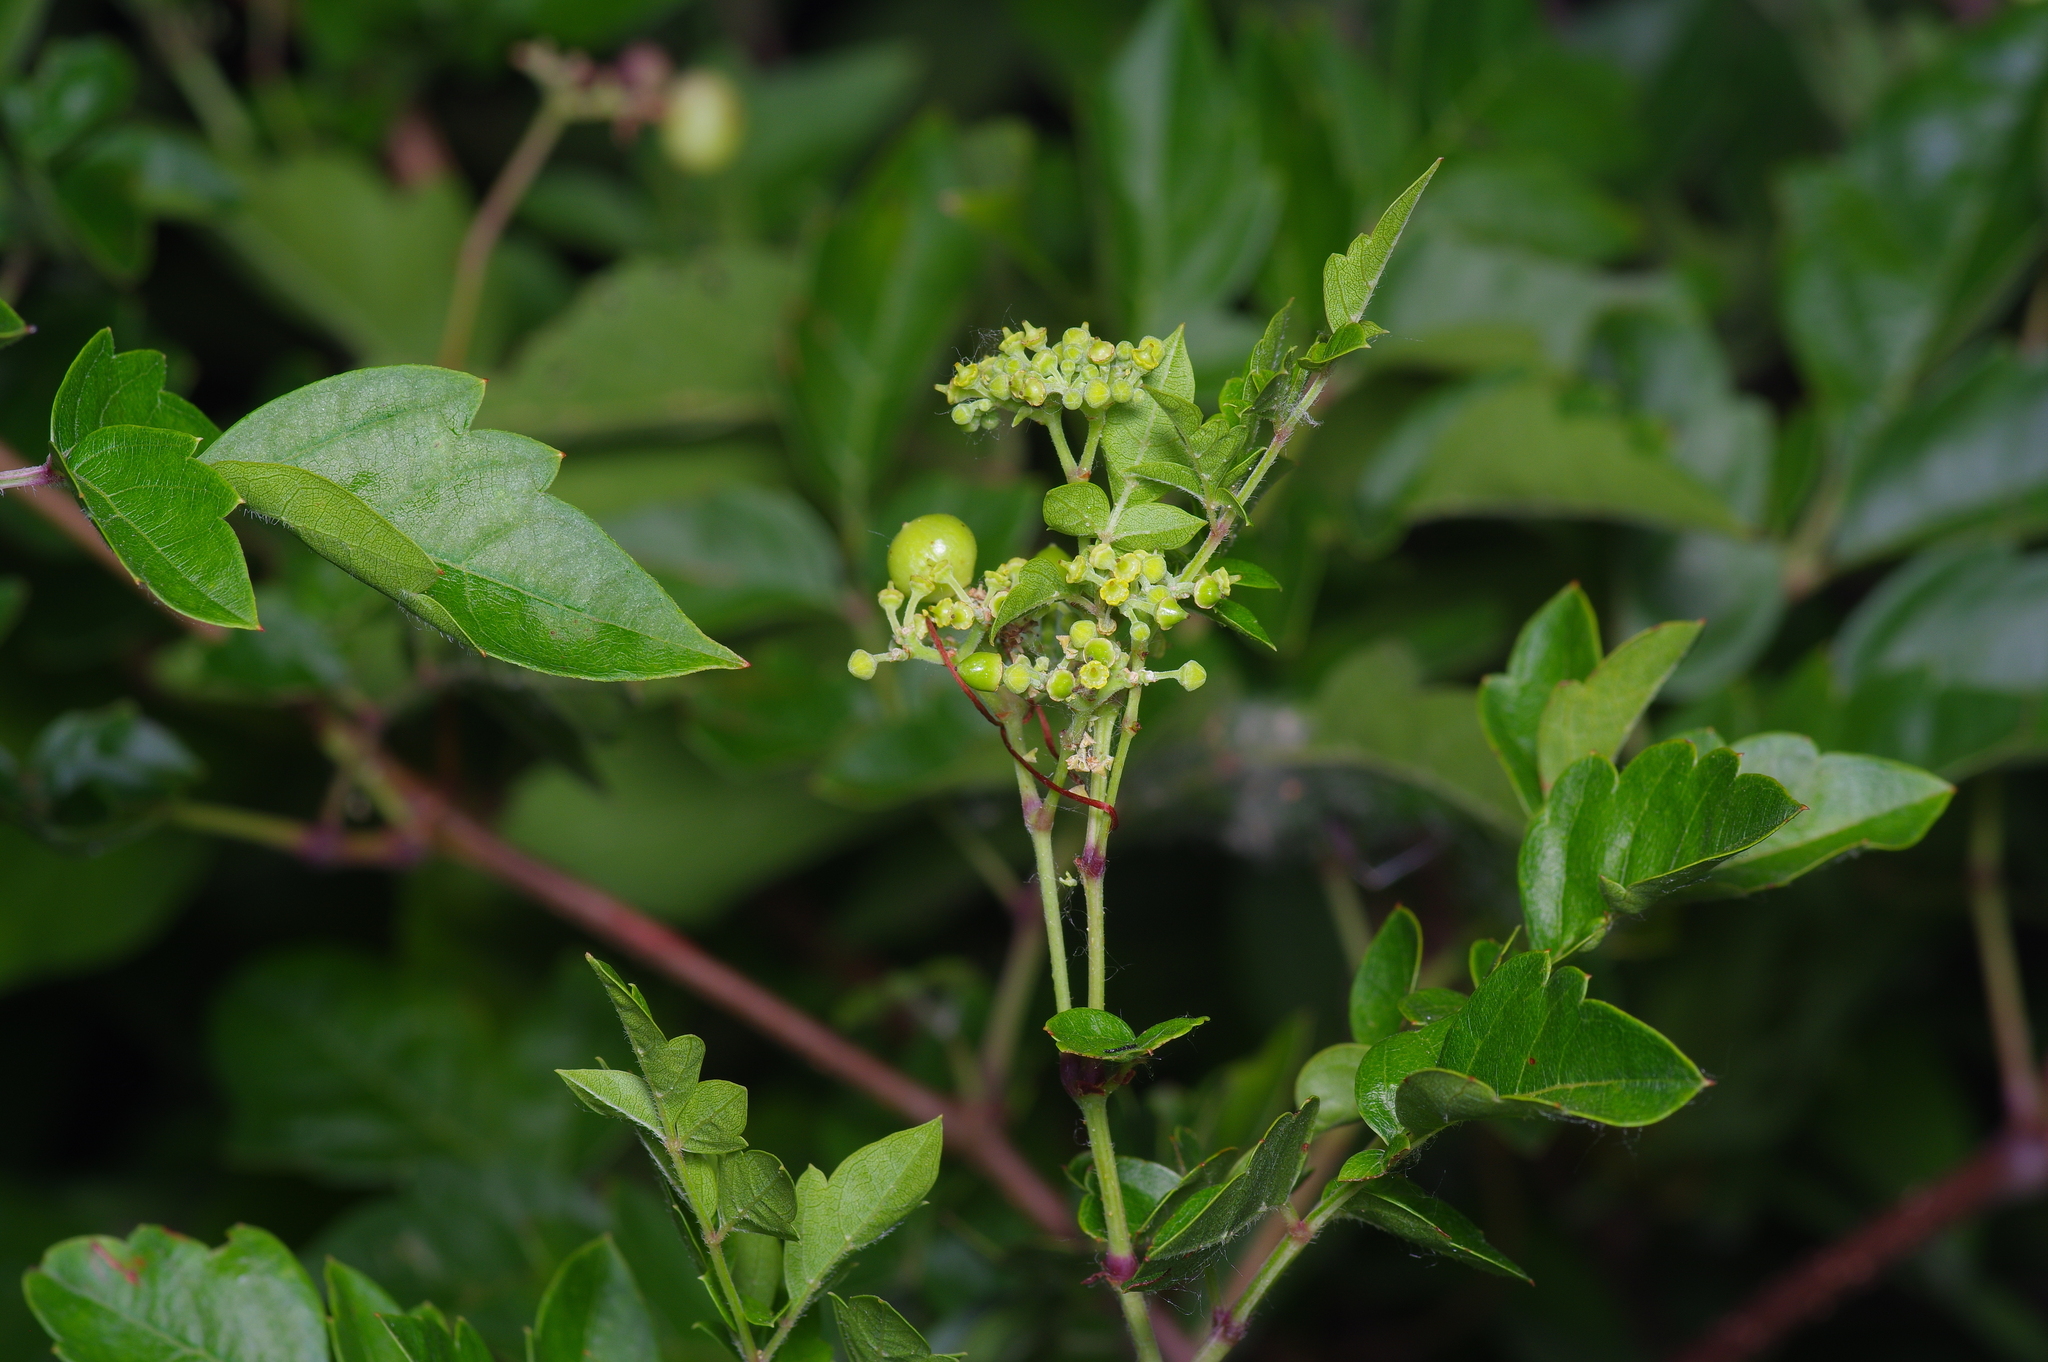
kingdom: Plantae
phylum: Tracheophyta
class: Magnoliopsida
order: Vitales
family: Vitaceae
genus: Nekemias
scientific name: Nekemias arborea
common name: Peppervine
